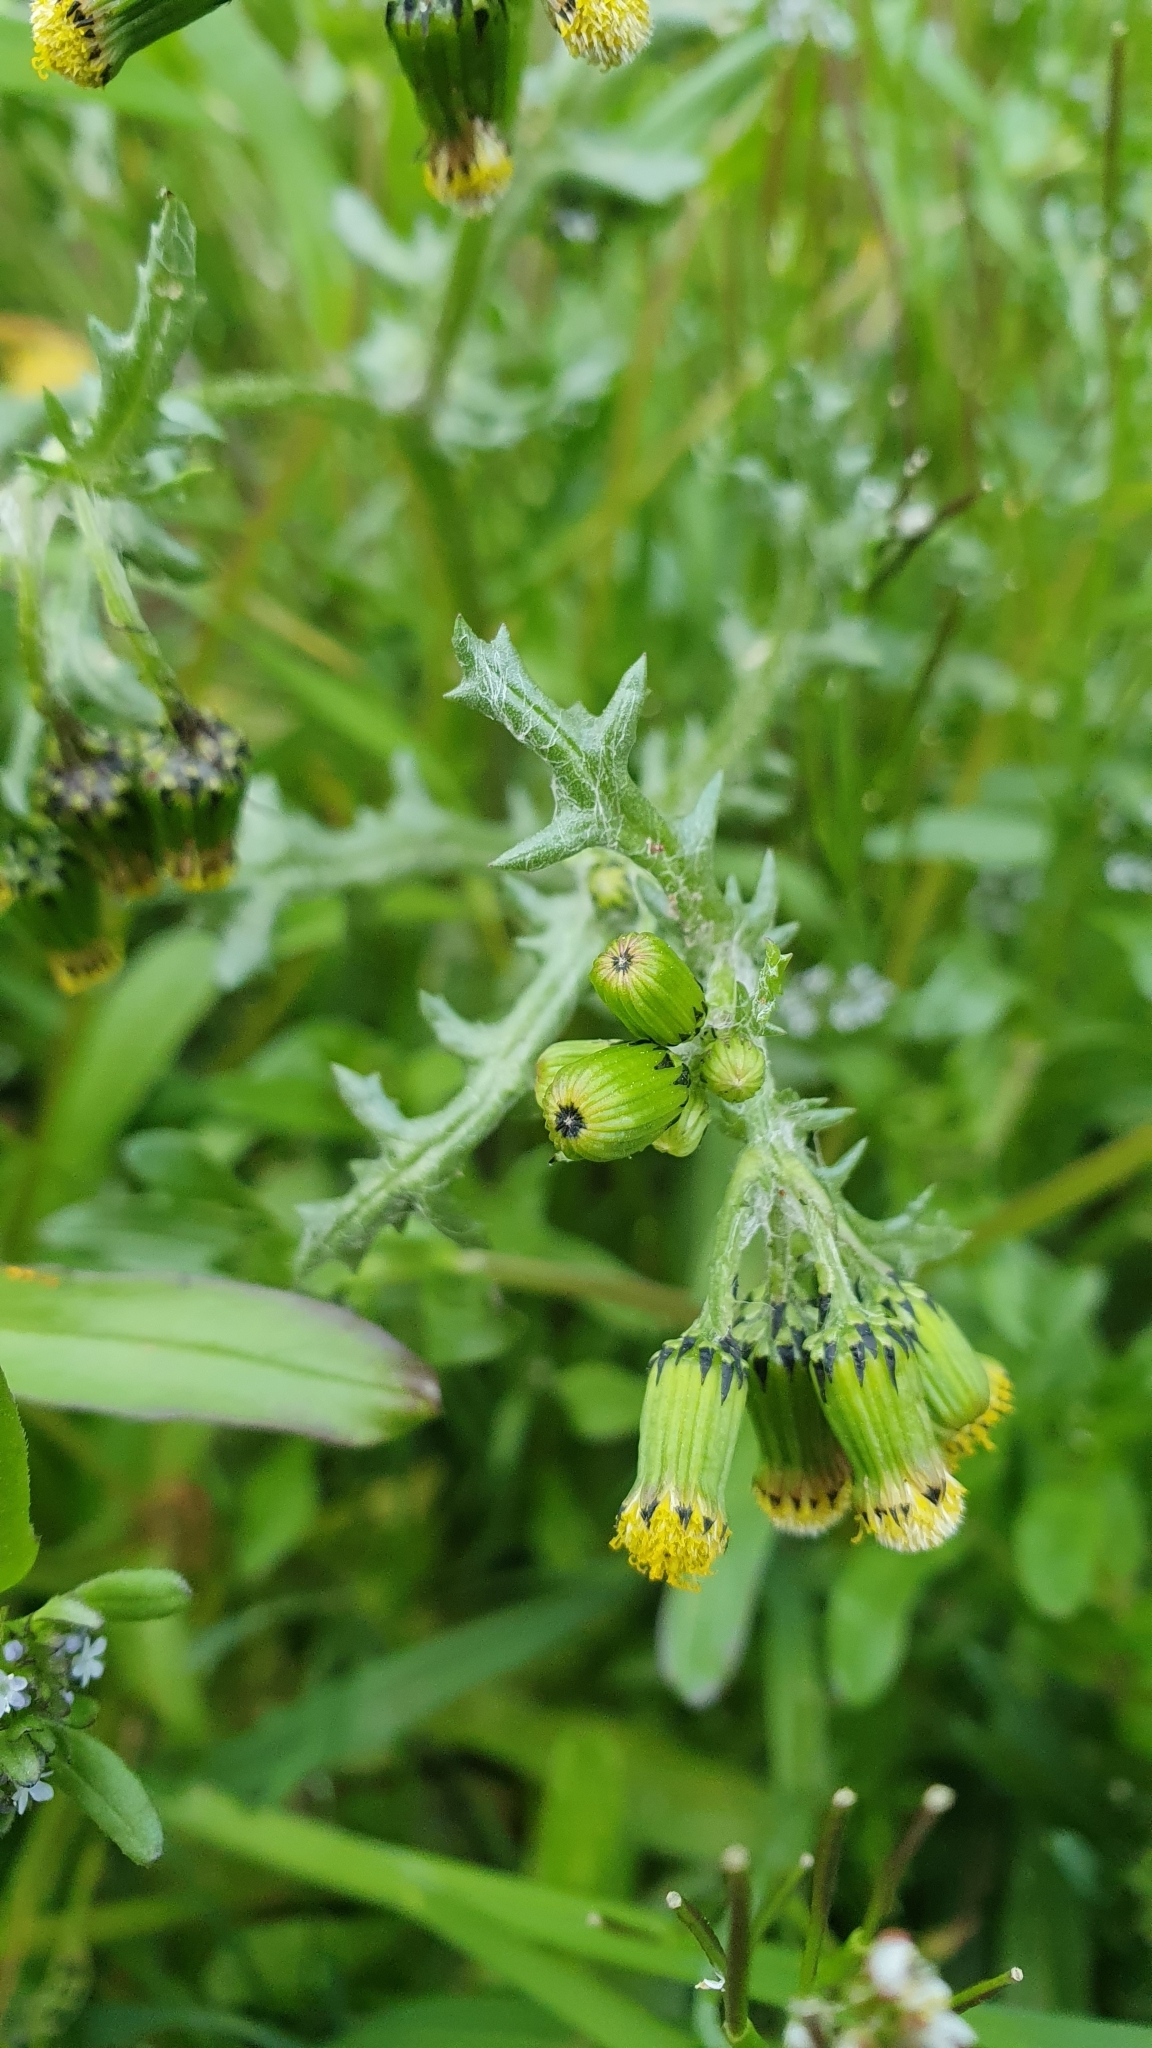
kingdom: Plantae
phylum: Tracheophyta
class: Magnoliopsida
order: Asterales
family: Asteraceae
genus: Senecio
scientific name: Senecio vulgaris
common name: Old-man-in-the-spring
